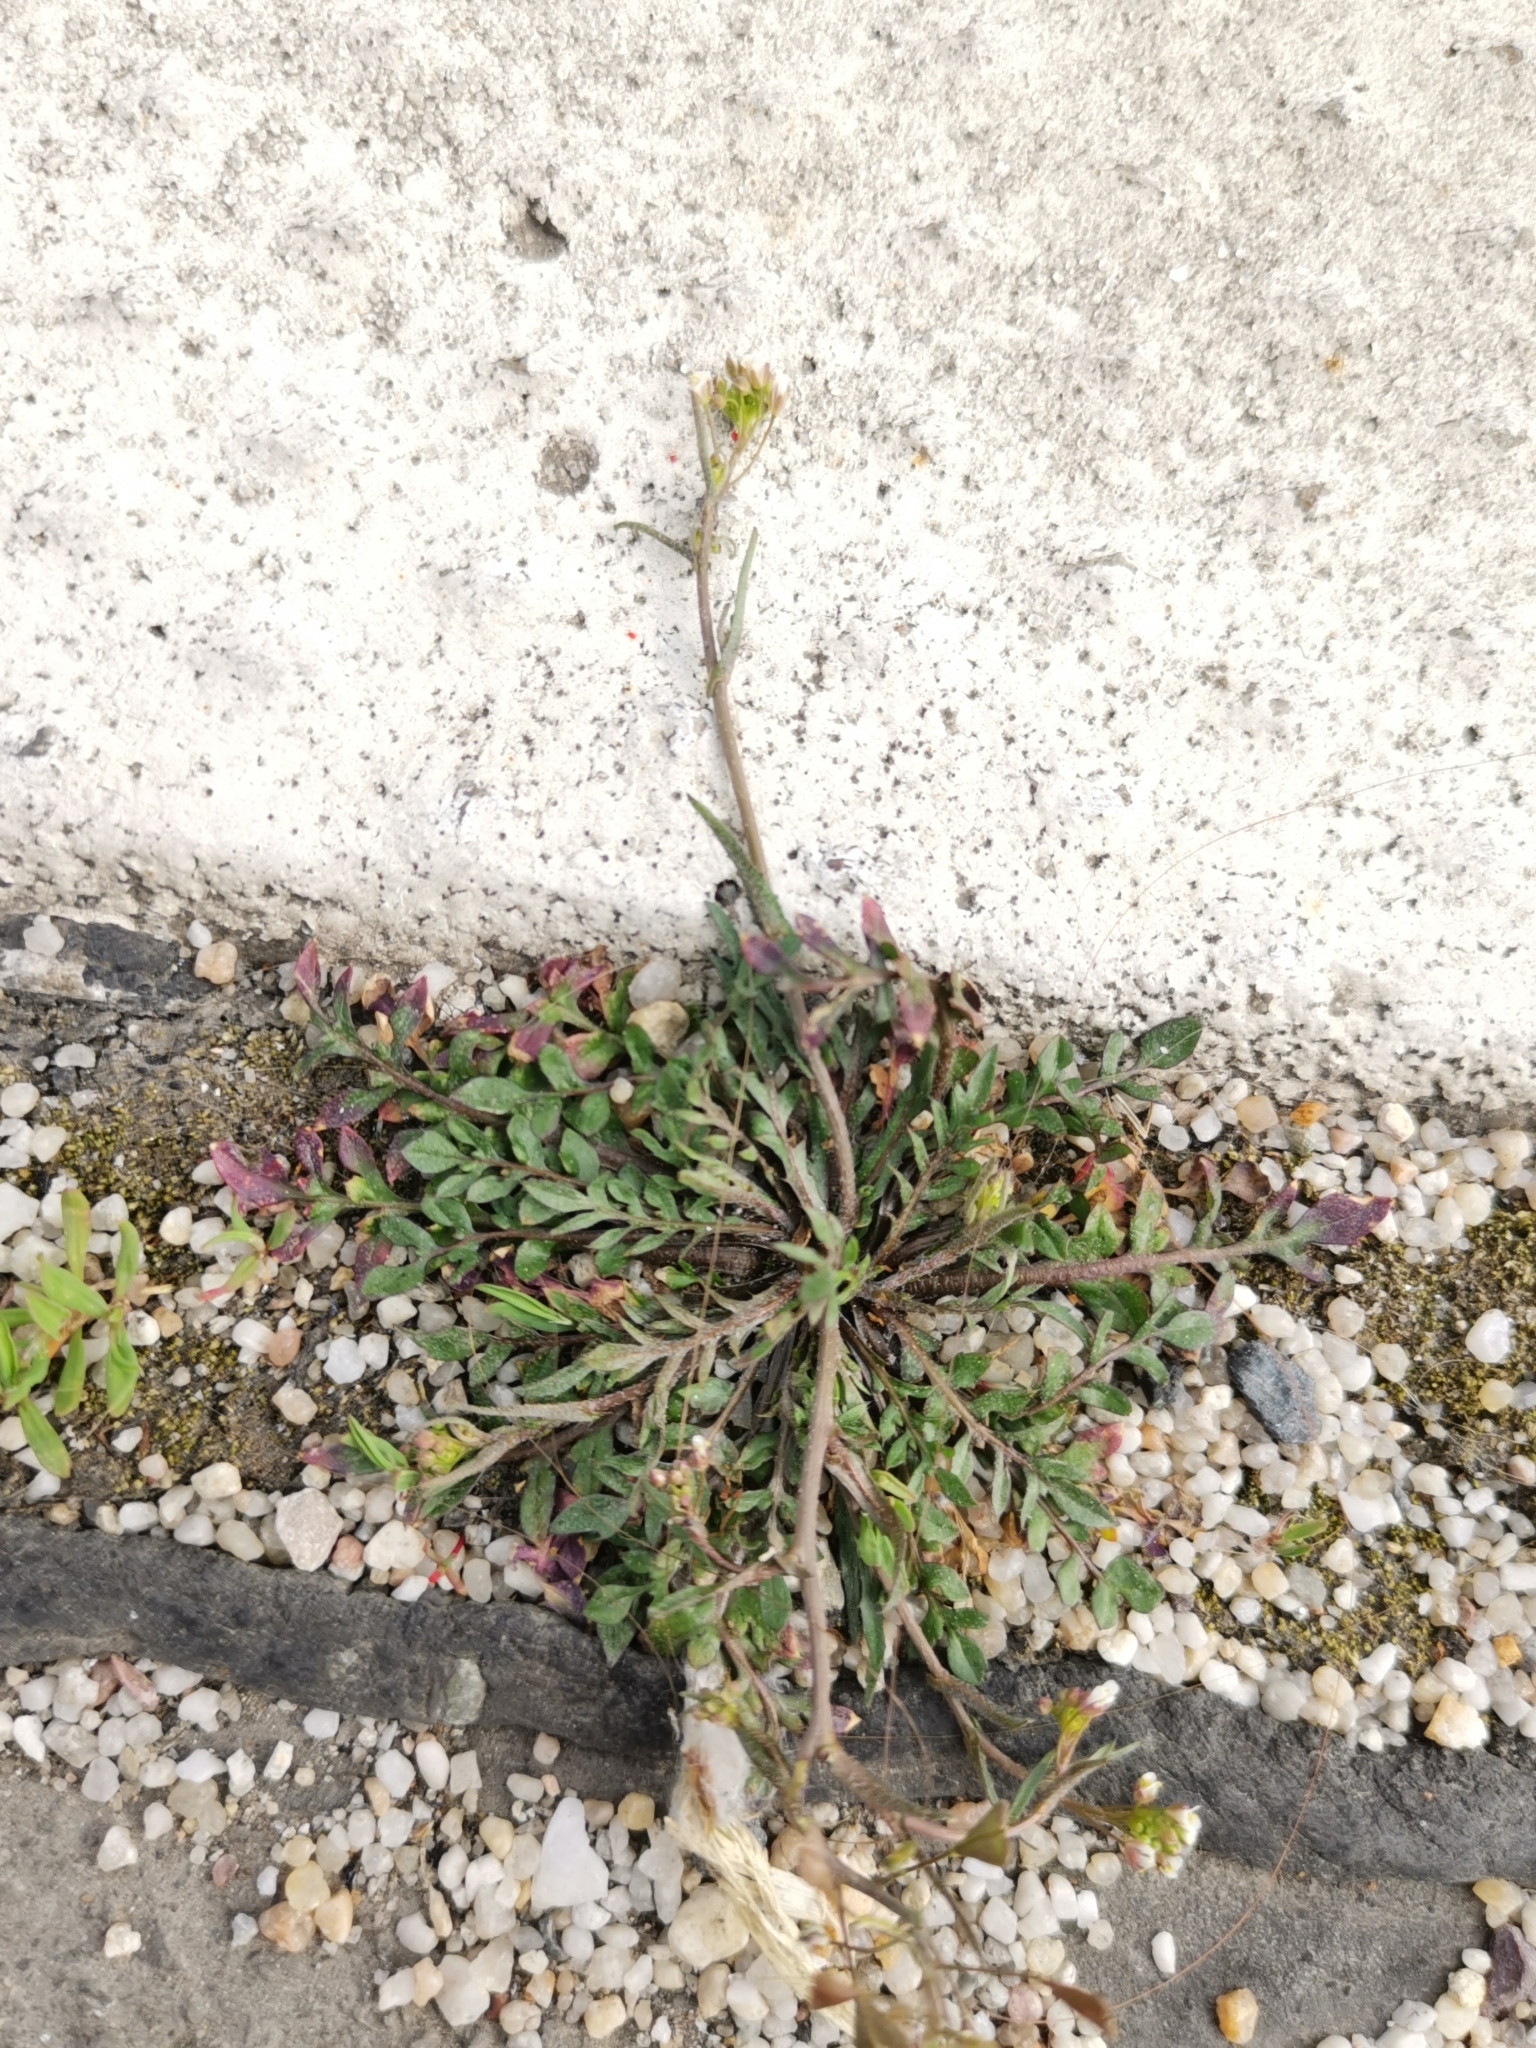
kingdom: Plantae
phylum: Tracheophyta
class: Magnoliopsida
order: Brassicales
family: Brassicaceae
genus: Capsella
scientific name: Capsella bursa-pastoris
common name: Shepherd's purse
